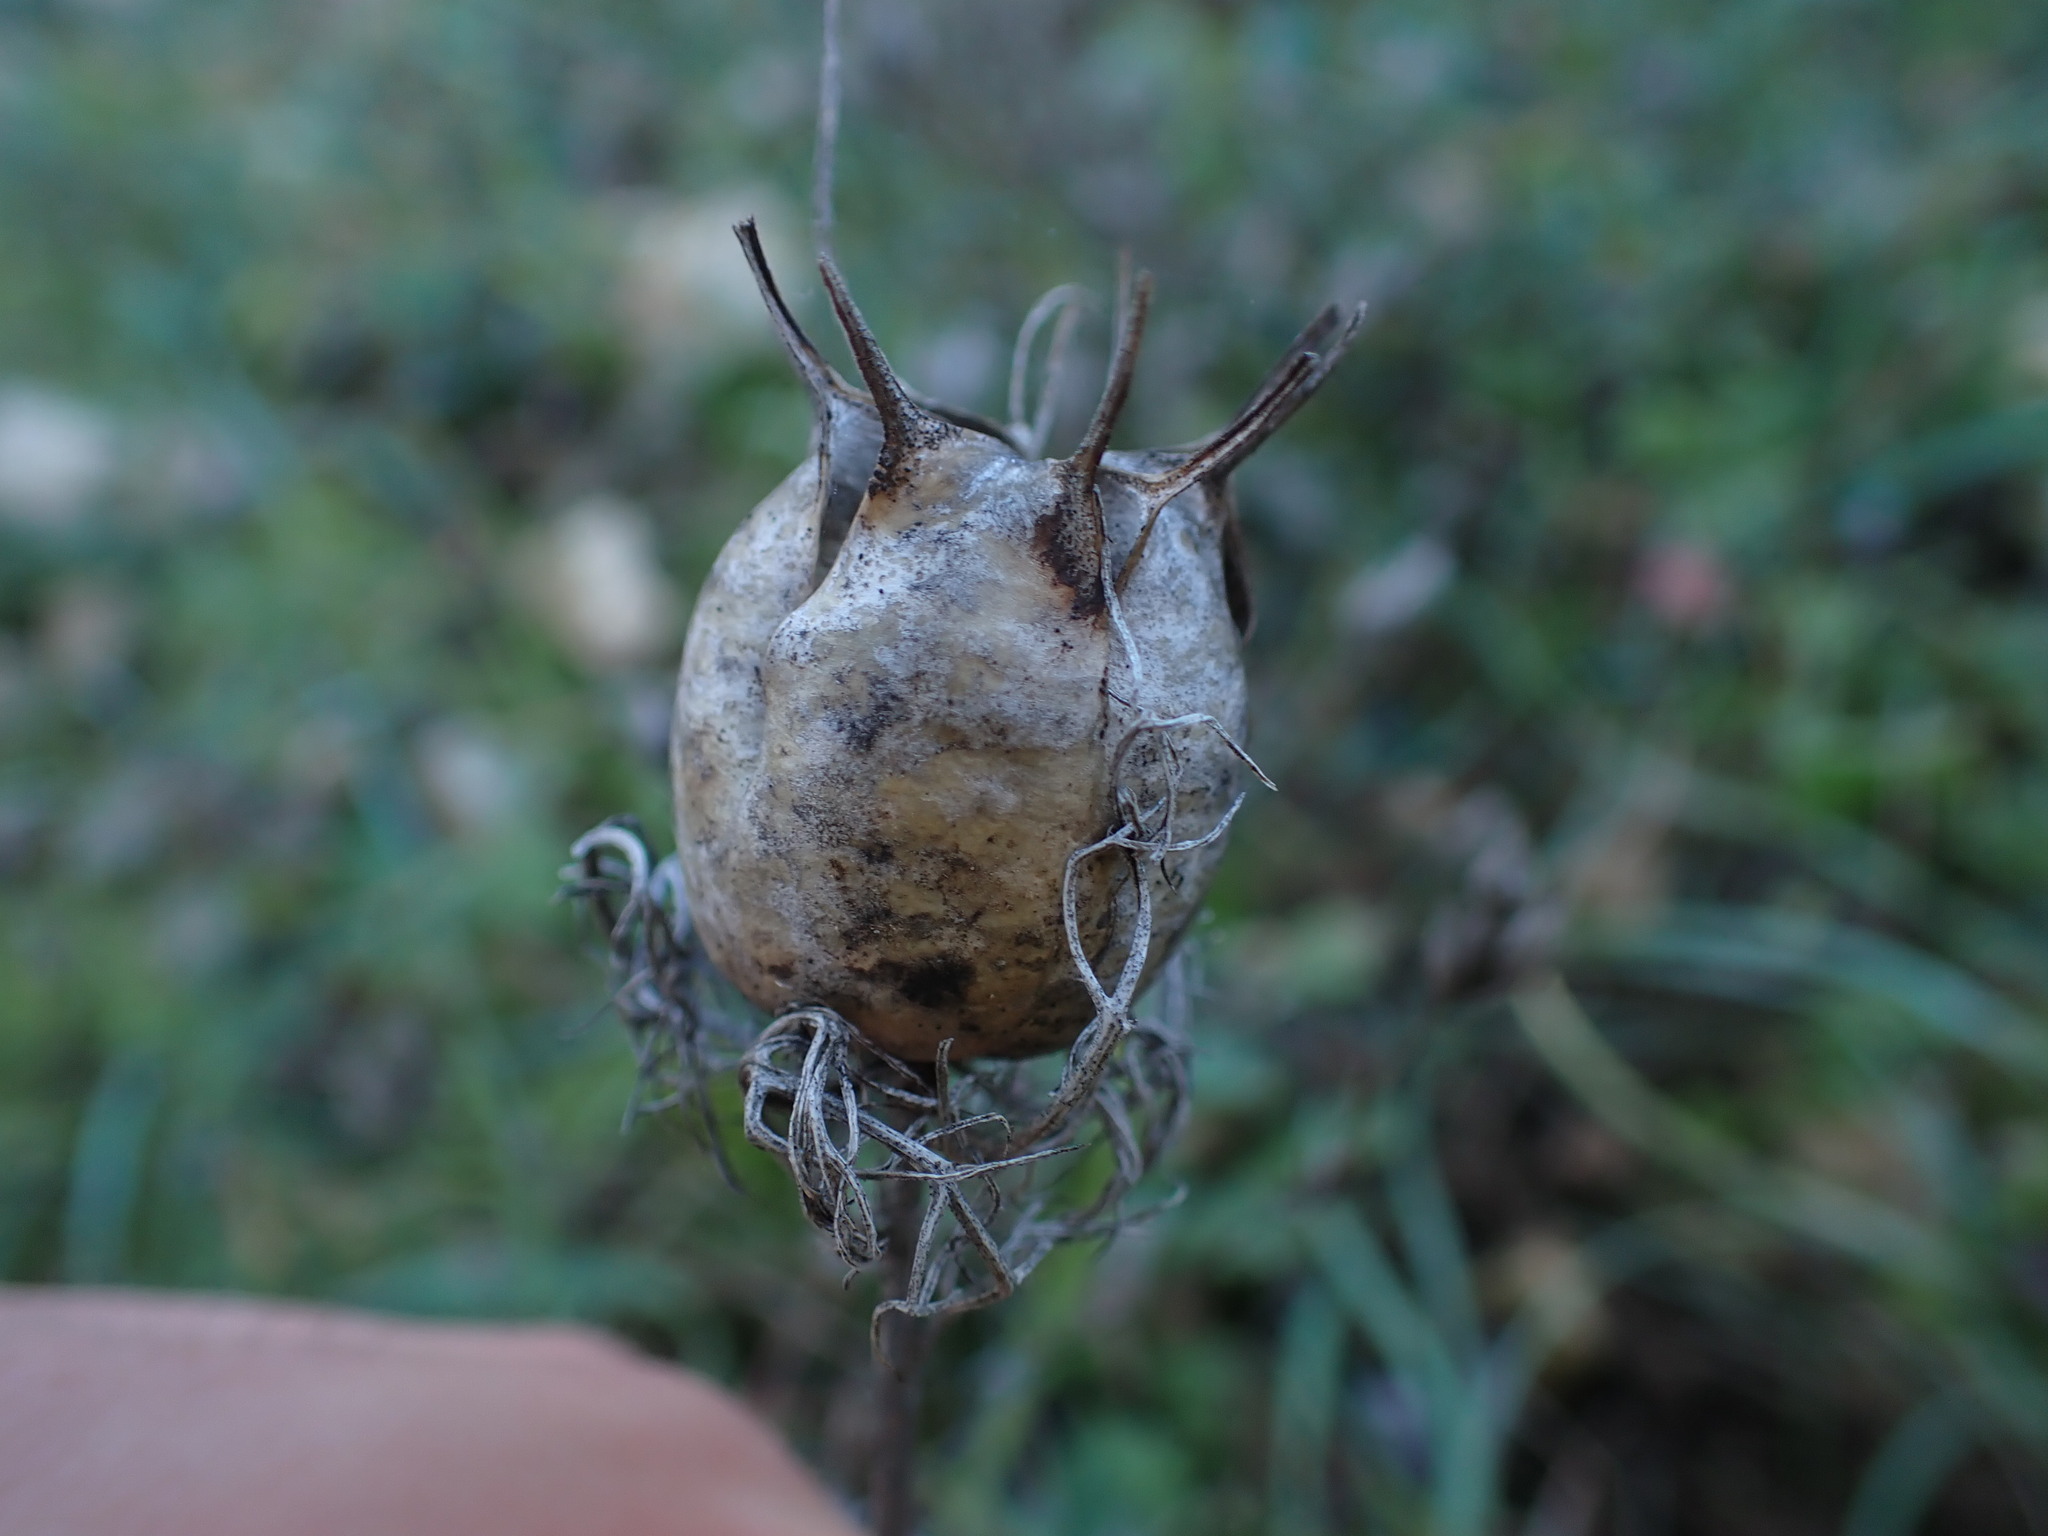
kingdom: Plantae
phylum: Tracheophyta
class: Magnoliopsida
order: Ranunculales
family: Ranunculaceae
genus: Nigella
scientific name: Nigella damascena
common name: Love-in-a-mist
